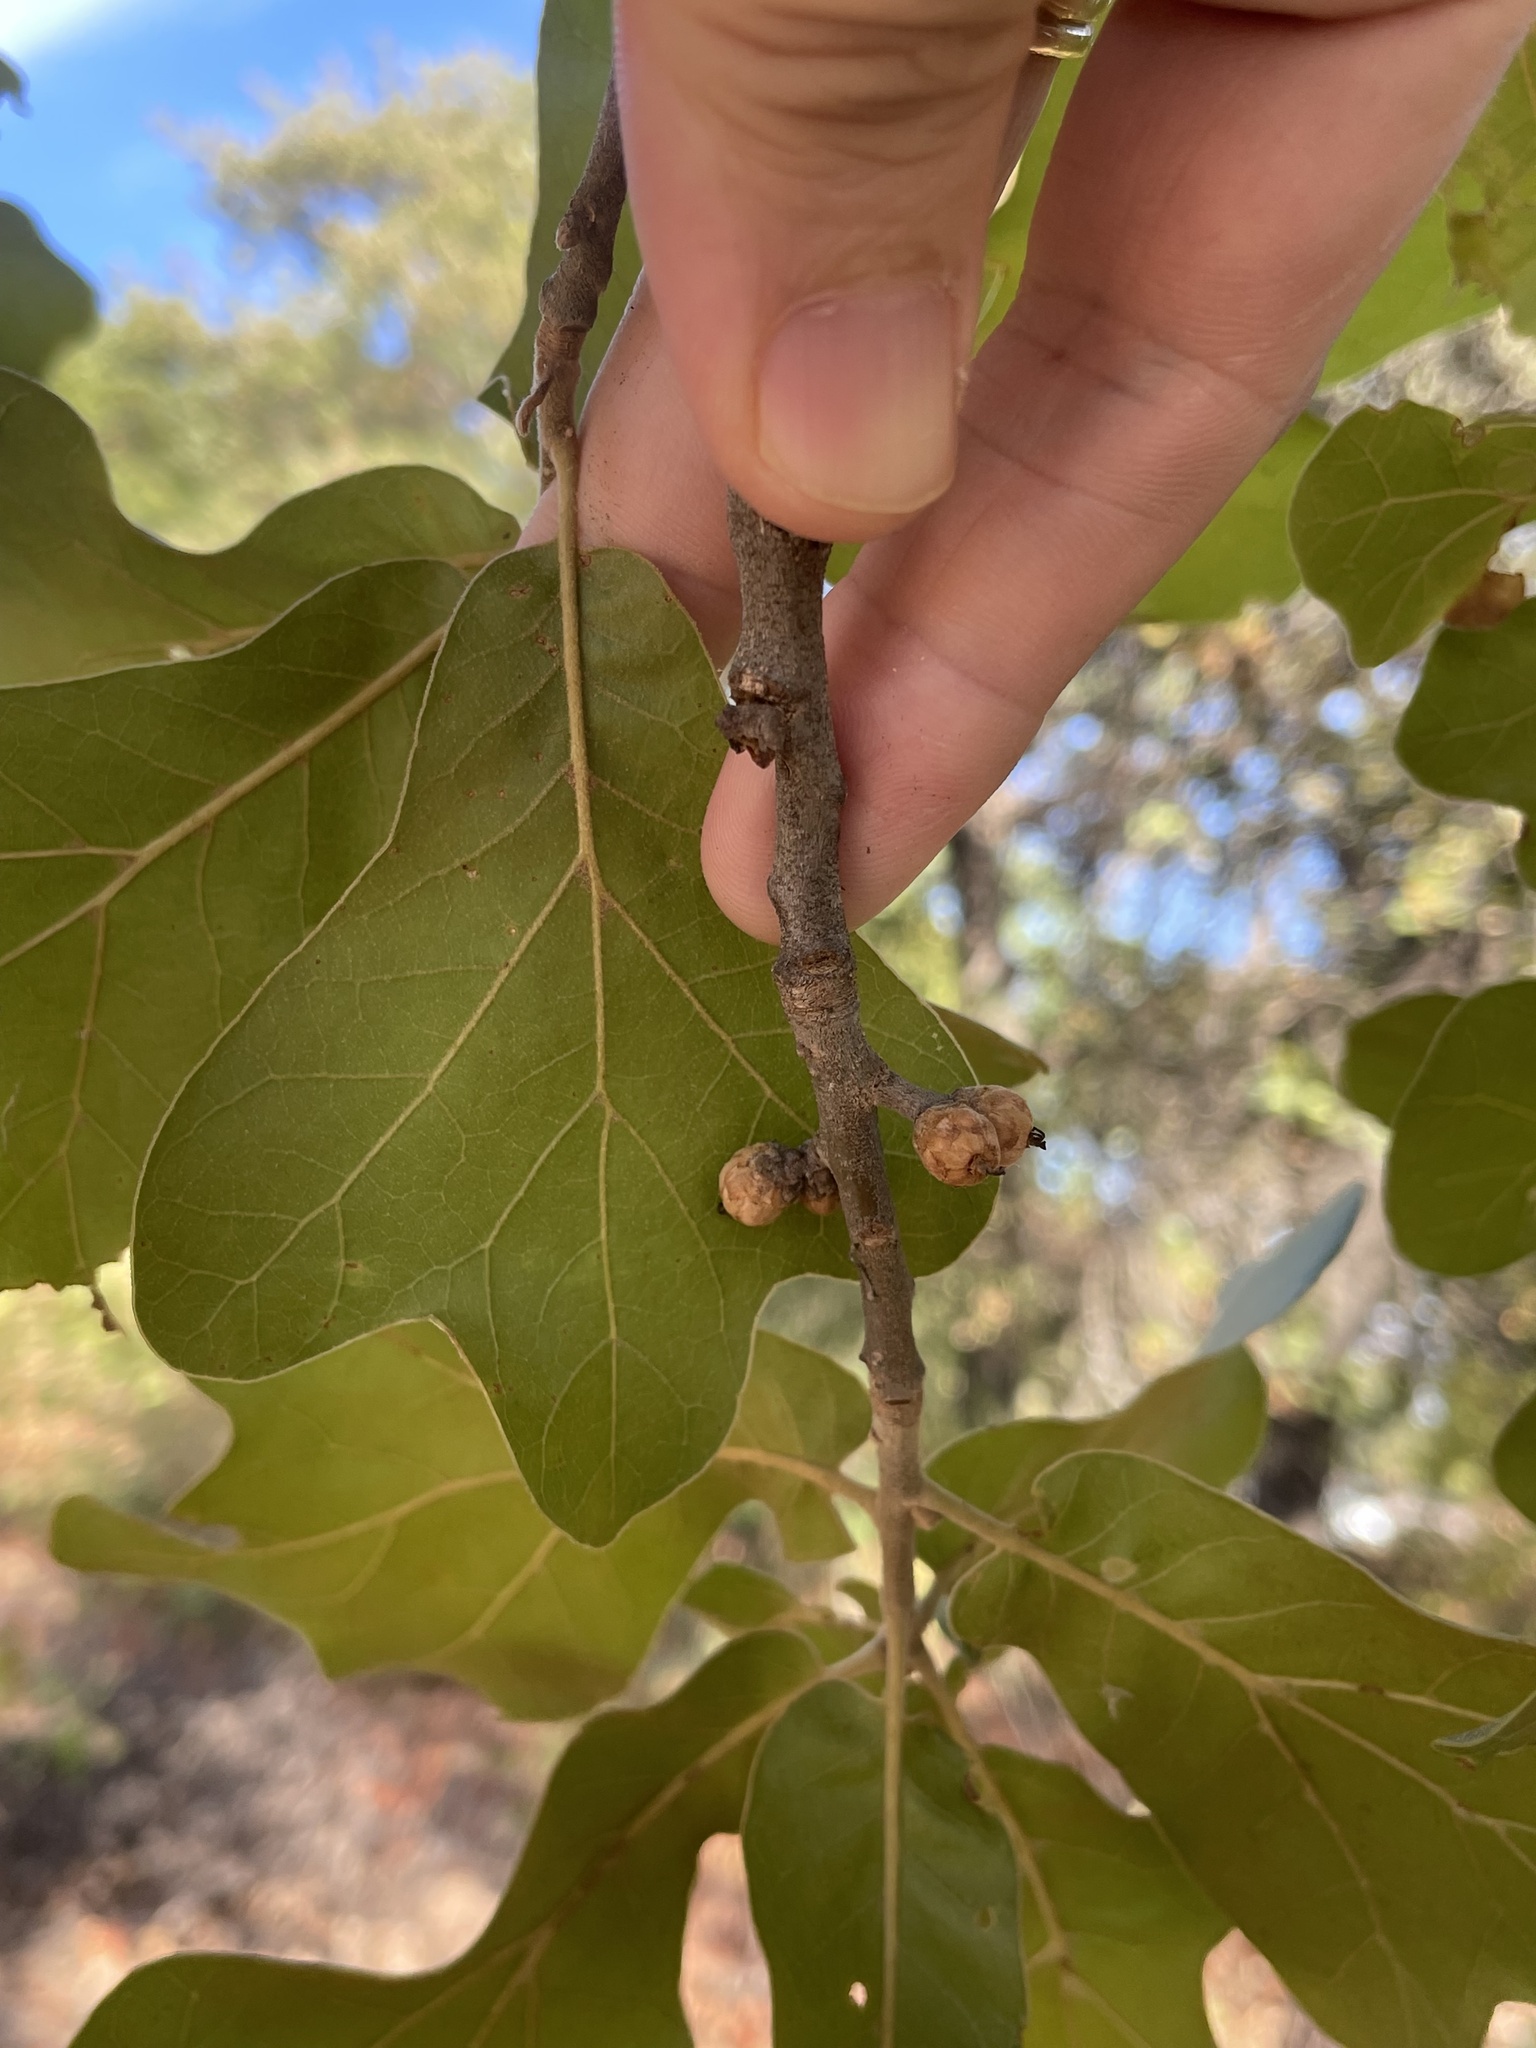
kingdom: Plantae
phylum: Tracheophyta
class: Magnoliopsida
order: Fagales
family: Fagaceae
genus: Quercus
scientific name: Quercus marilandica
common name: Blackjack oak
